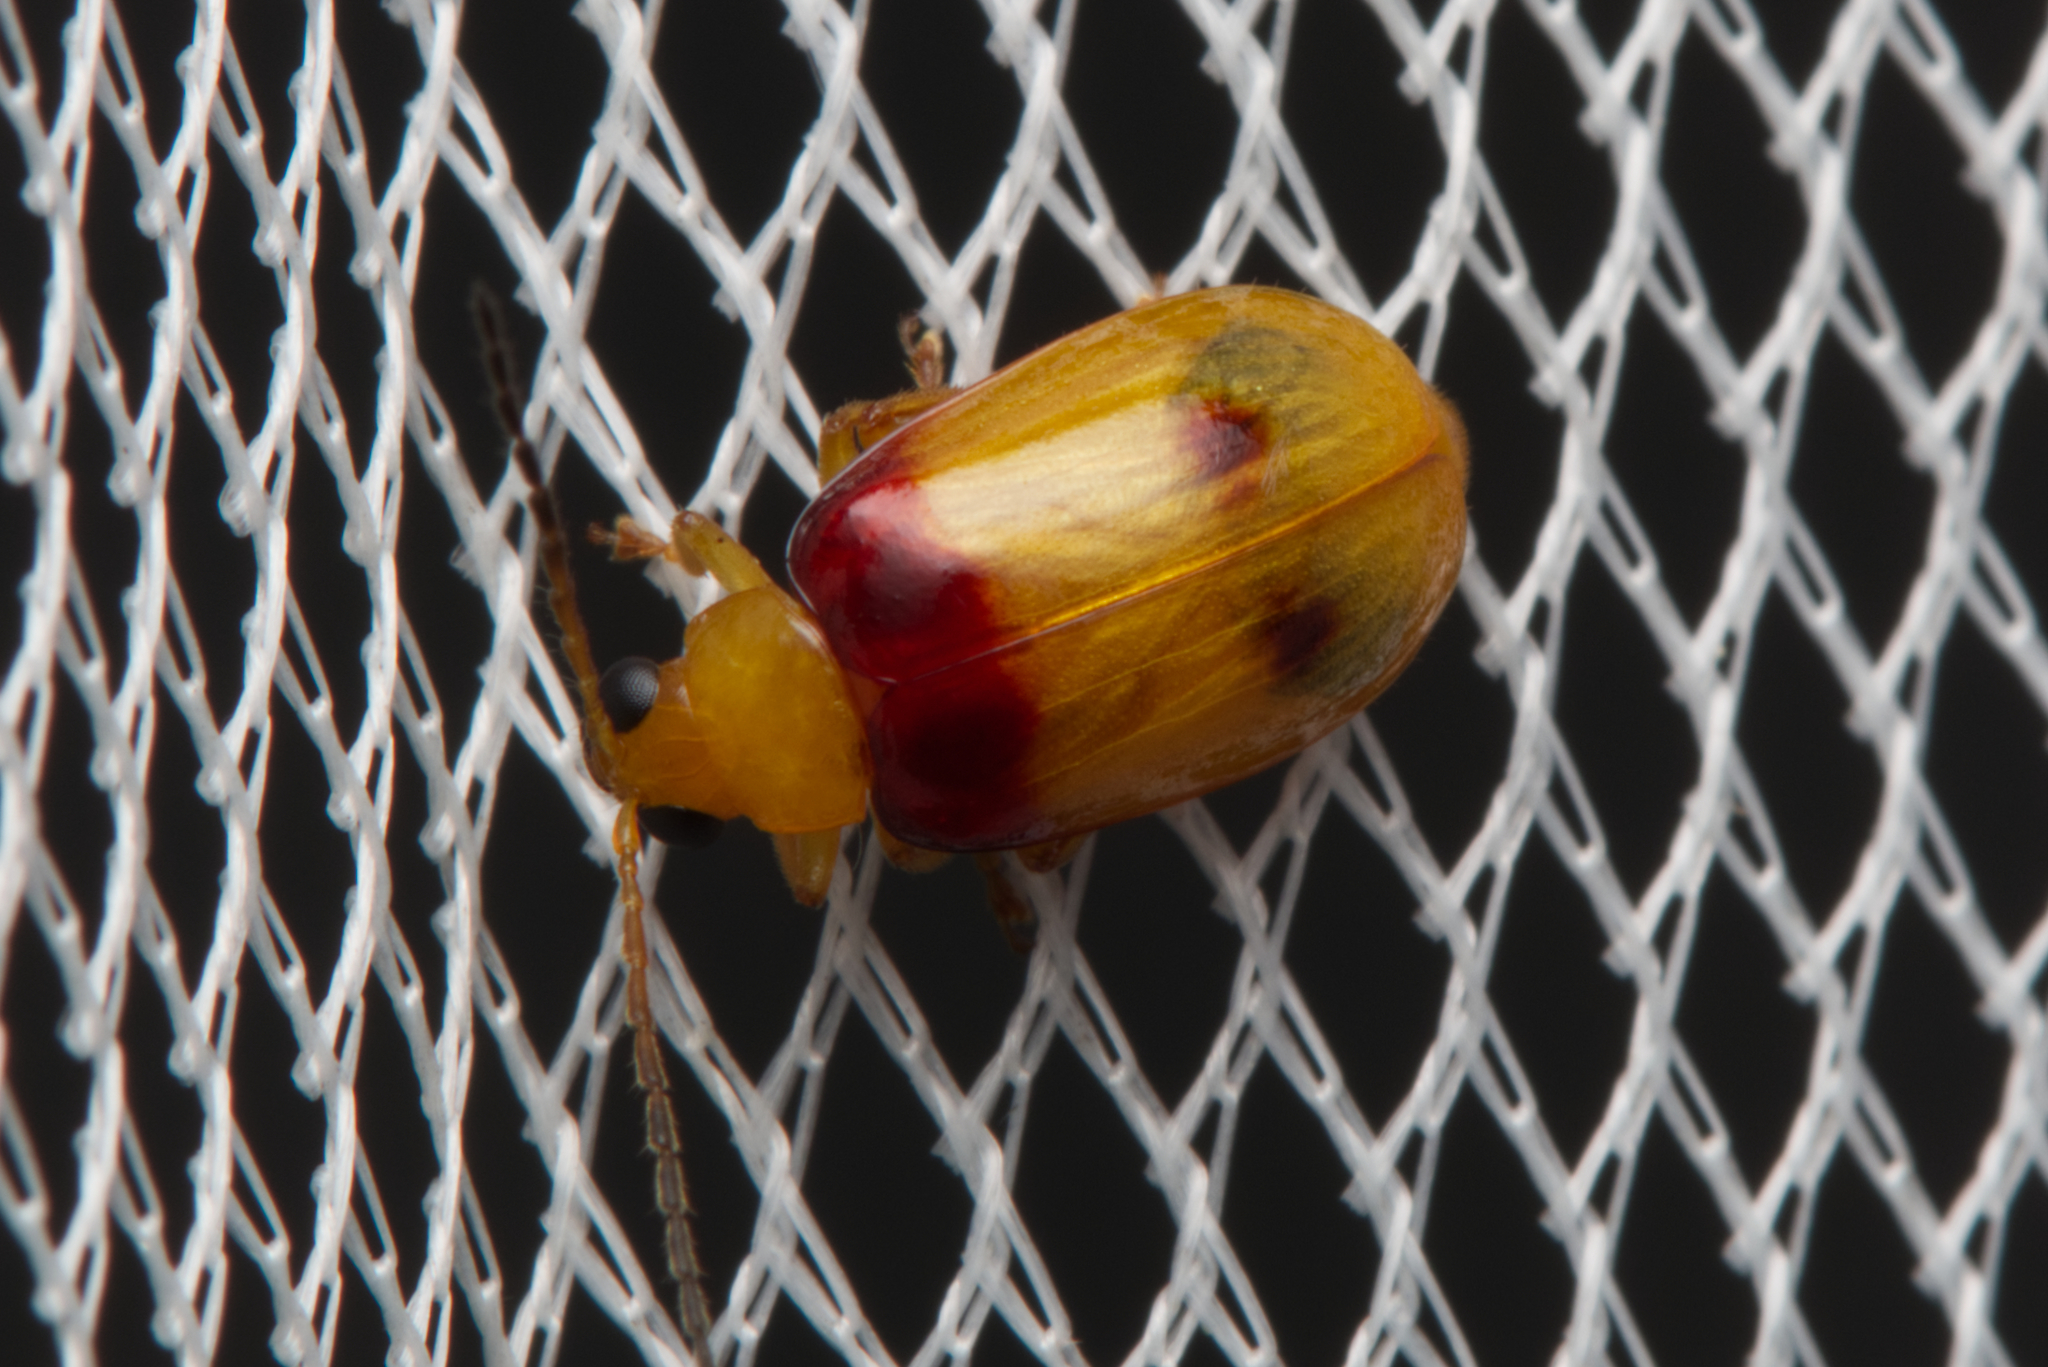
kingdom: Animalia
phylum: Arthropoda
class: Insecta
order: Coleoptera
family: Chrysomelidae
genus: Monolepta
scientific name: Monolepta
